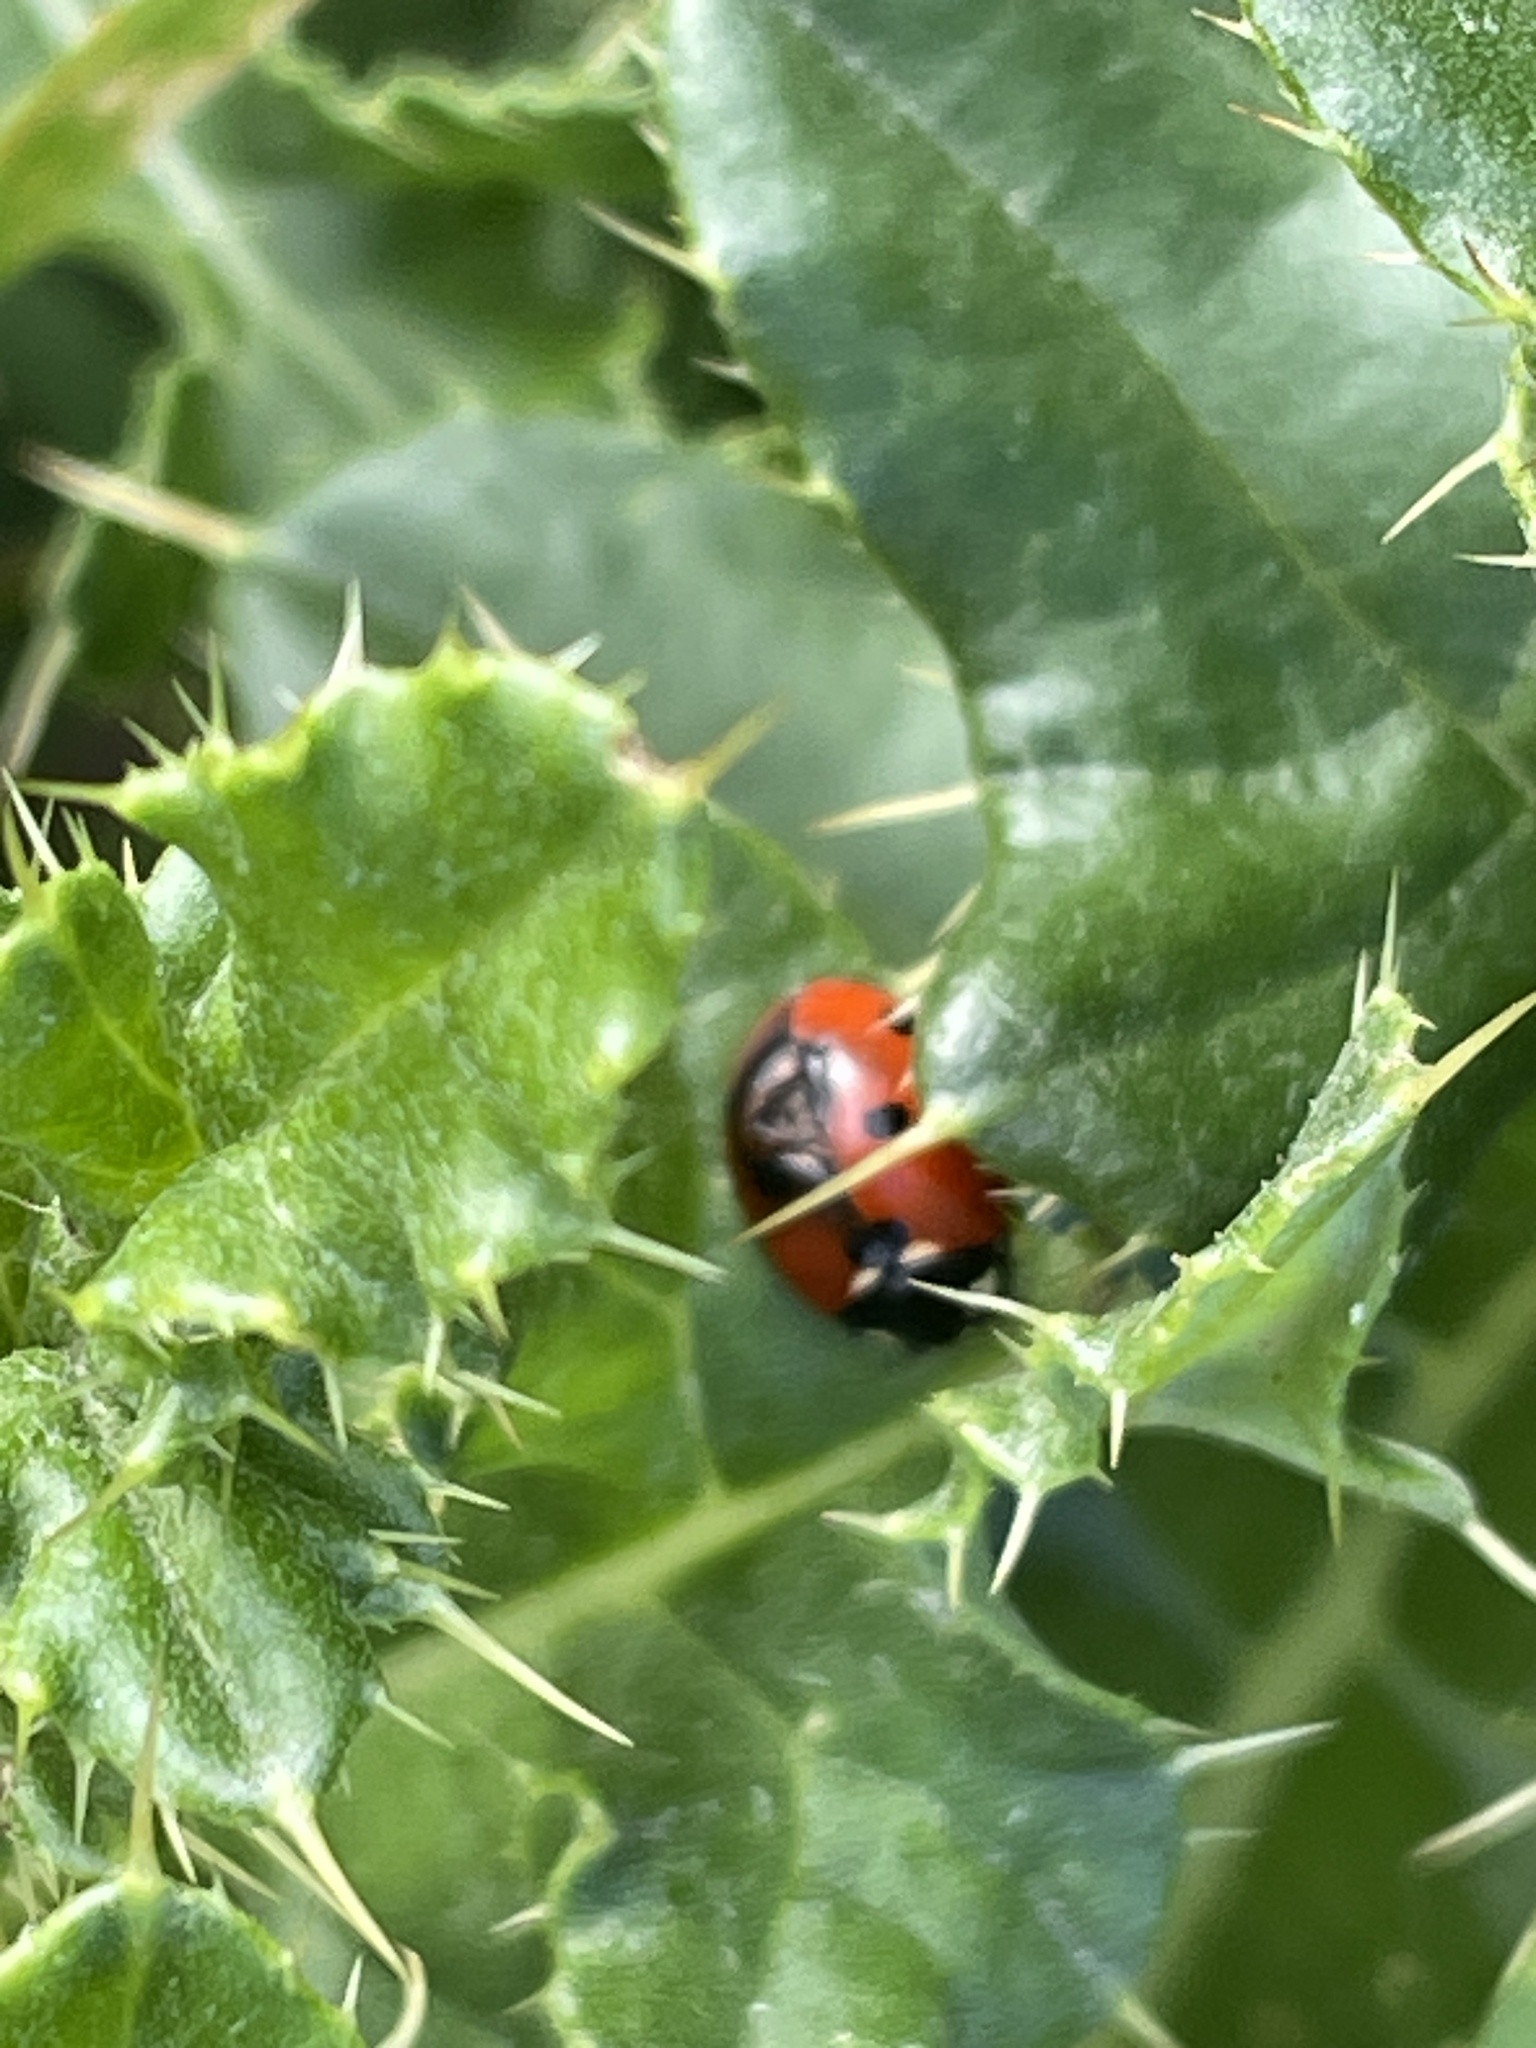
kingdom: Animalia
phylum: Arthropoda
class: Insecta
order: Coleoptera
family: Coccinellidae
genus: Coccinella
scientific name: Coccinella septempunctata
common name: Sevenspotted lady beetle
